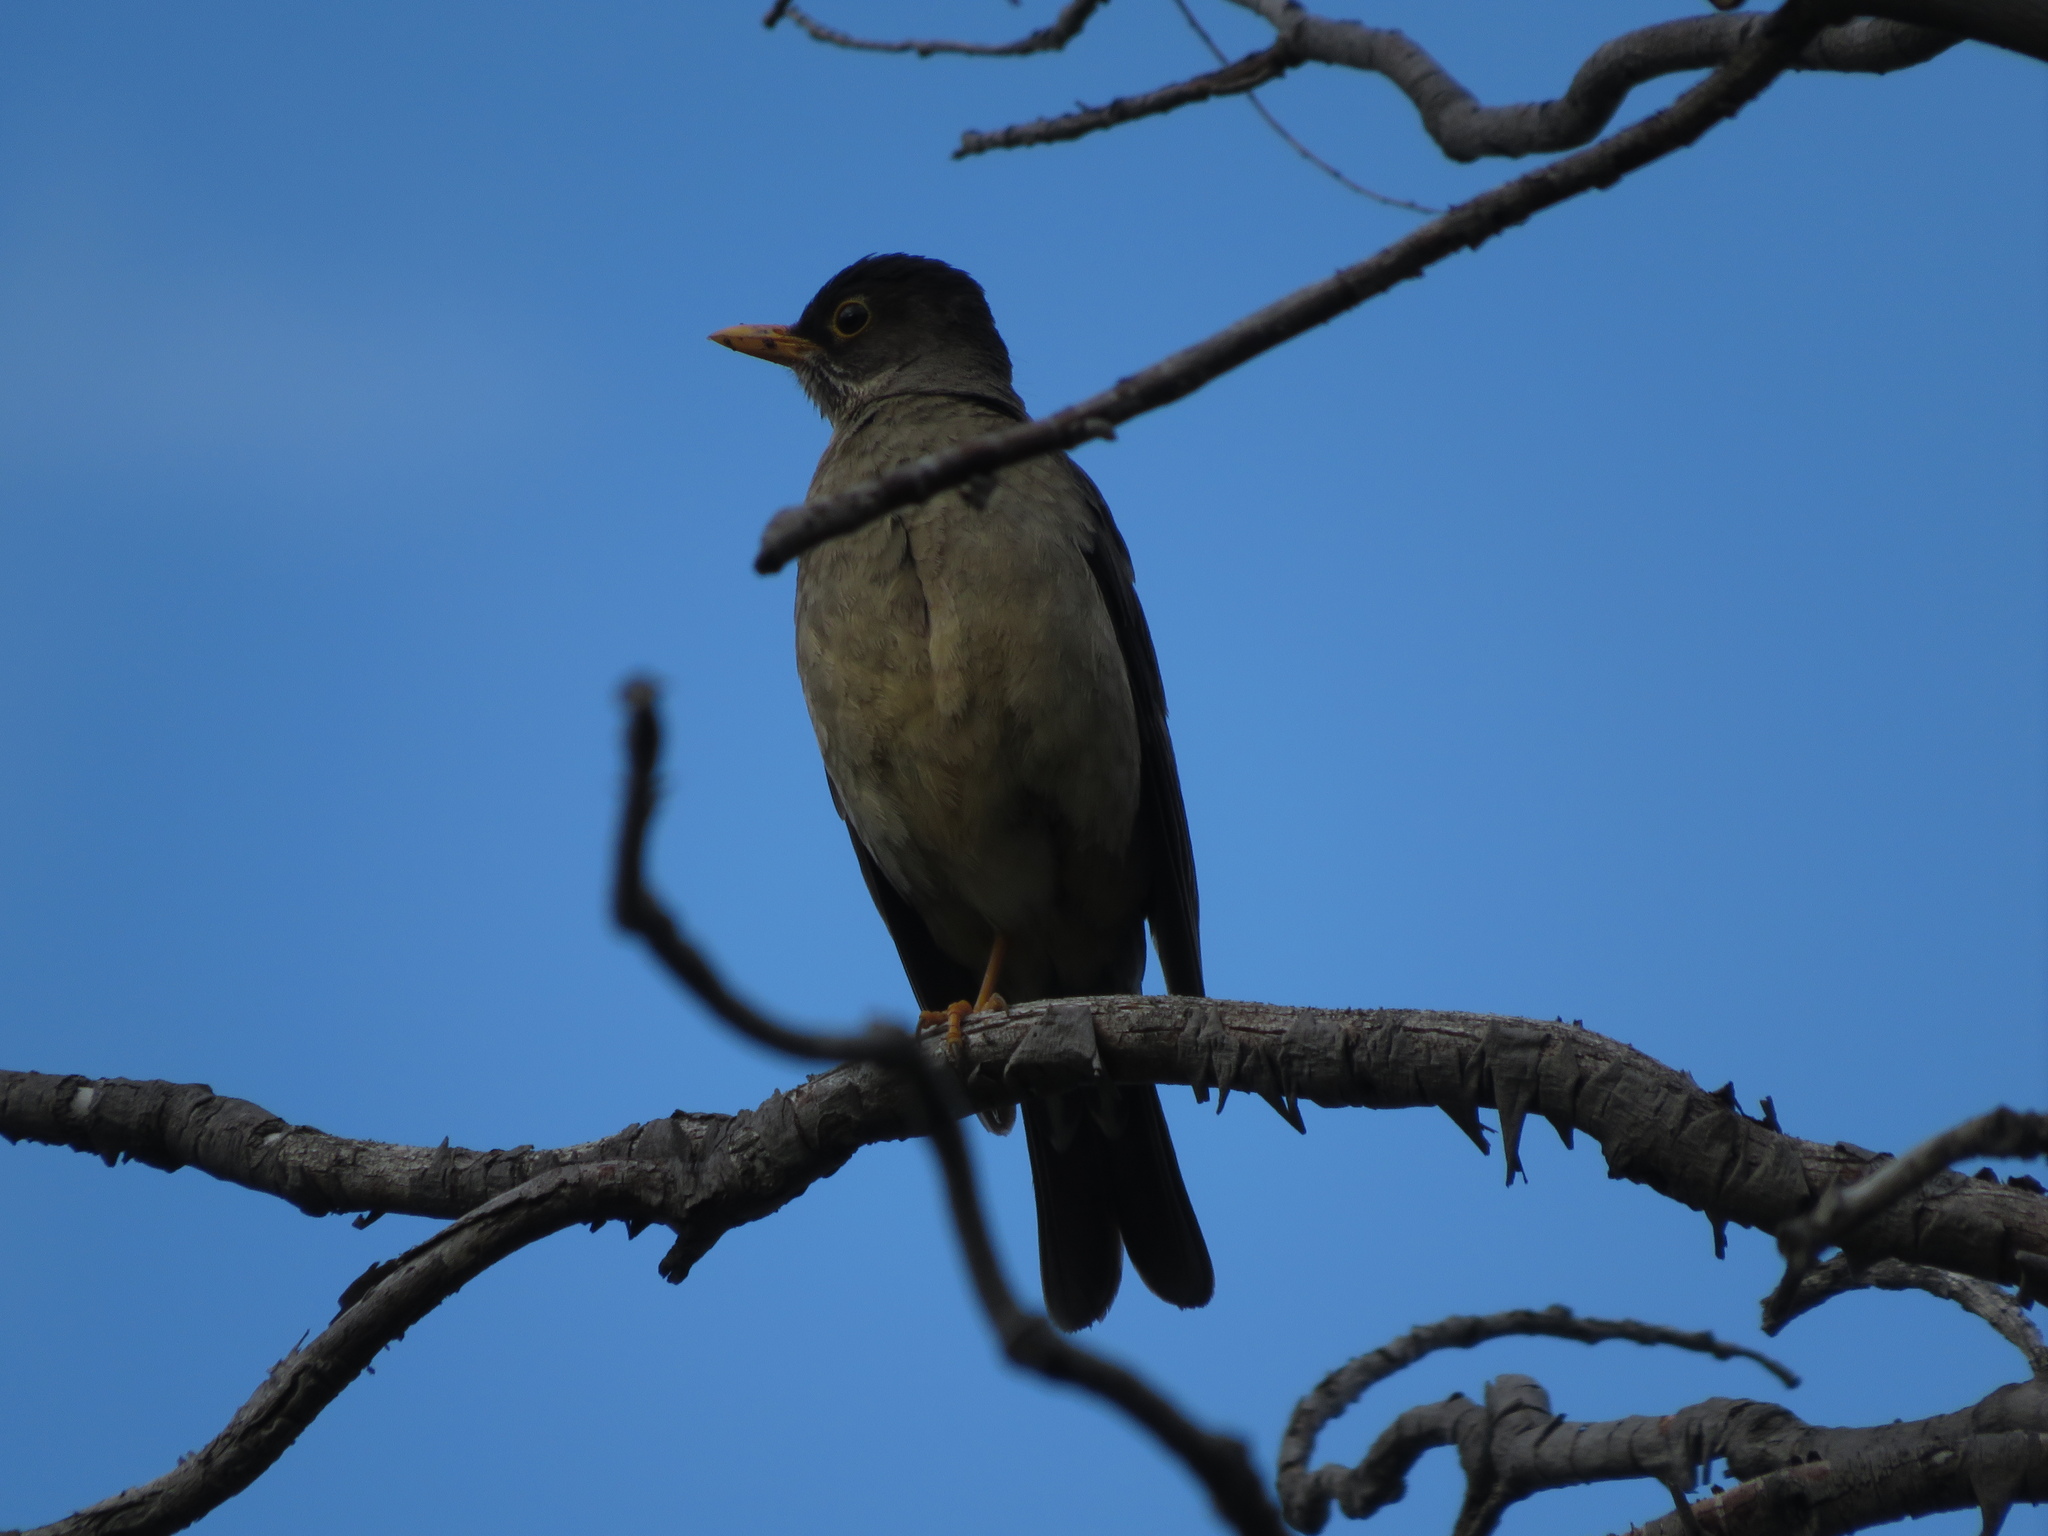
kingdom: Animalia
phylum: Chordata
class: Aves
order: Passeriformes
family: Turdidae
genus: Turdus
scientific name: Turdus falcklandii
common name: Austral thrush
